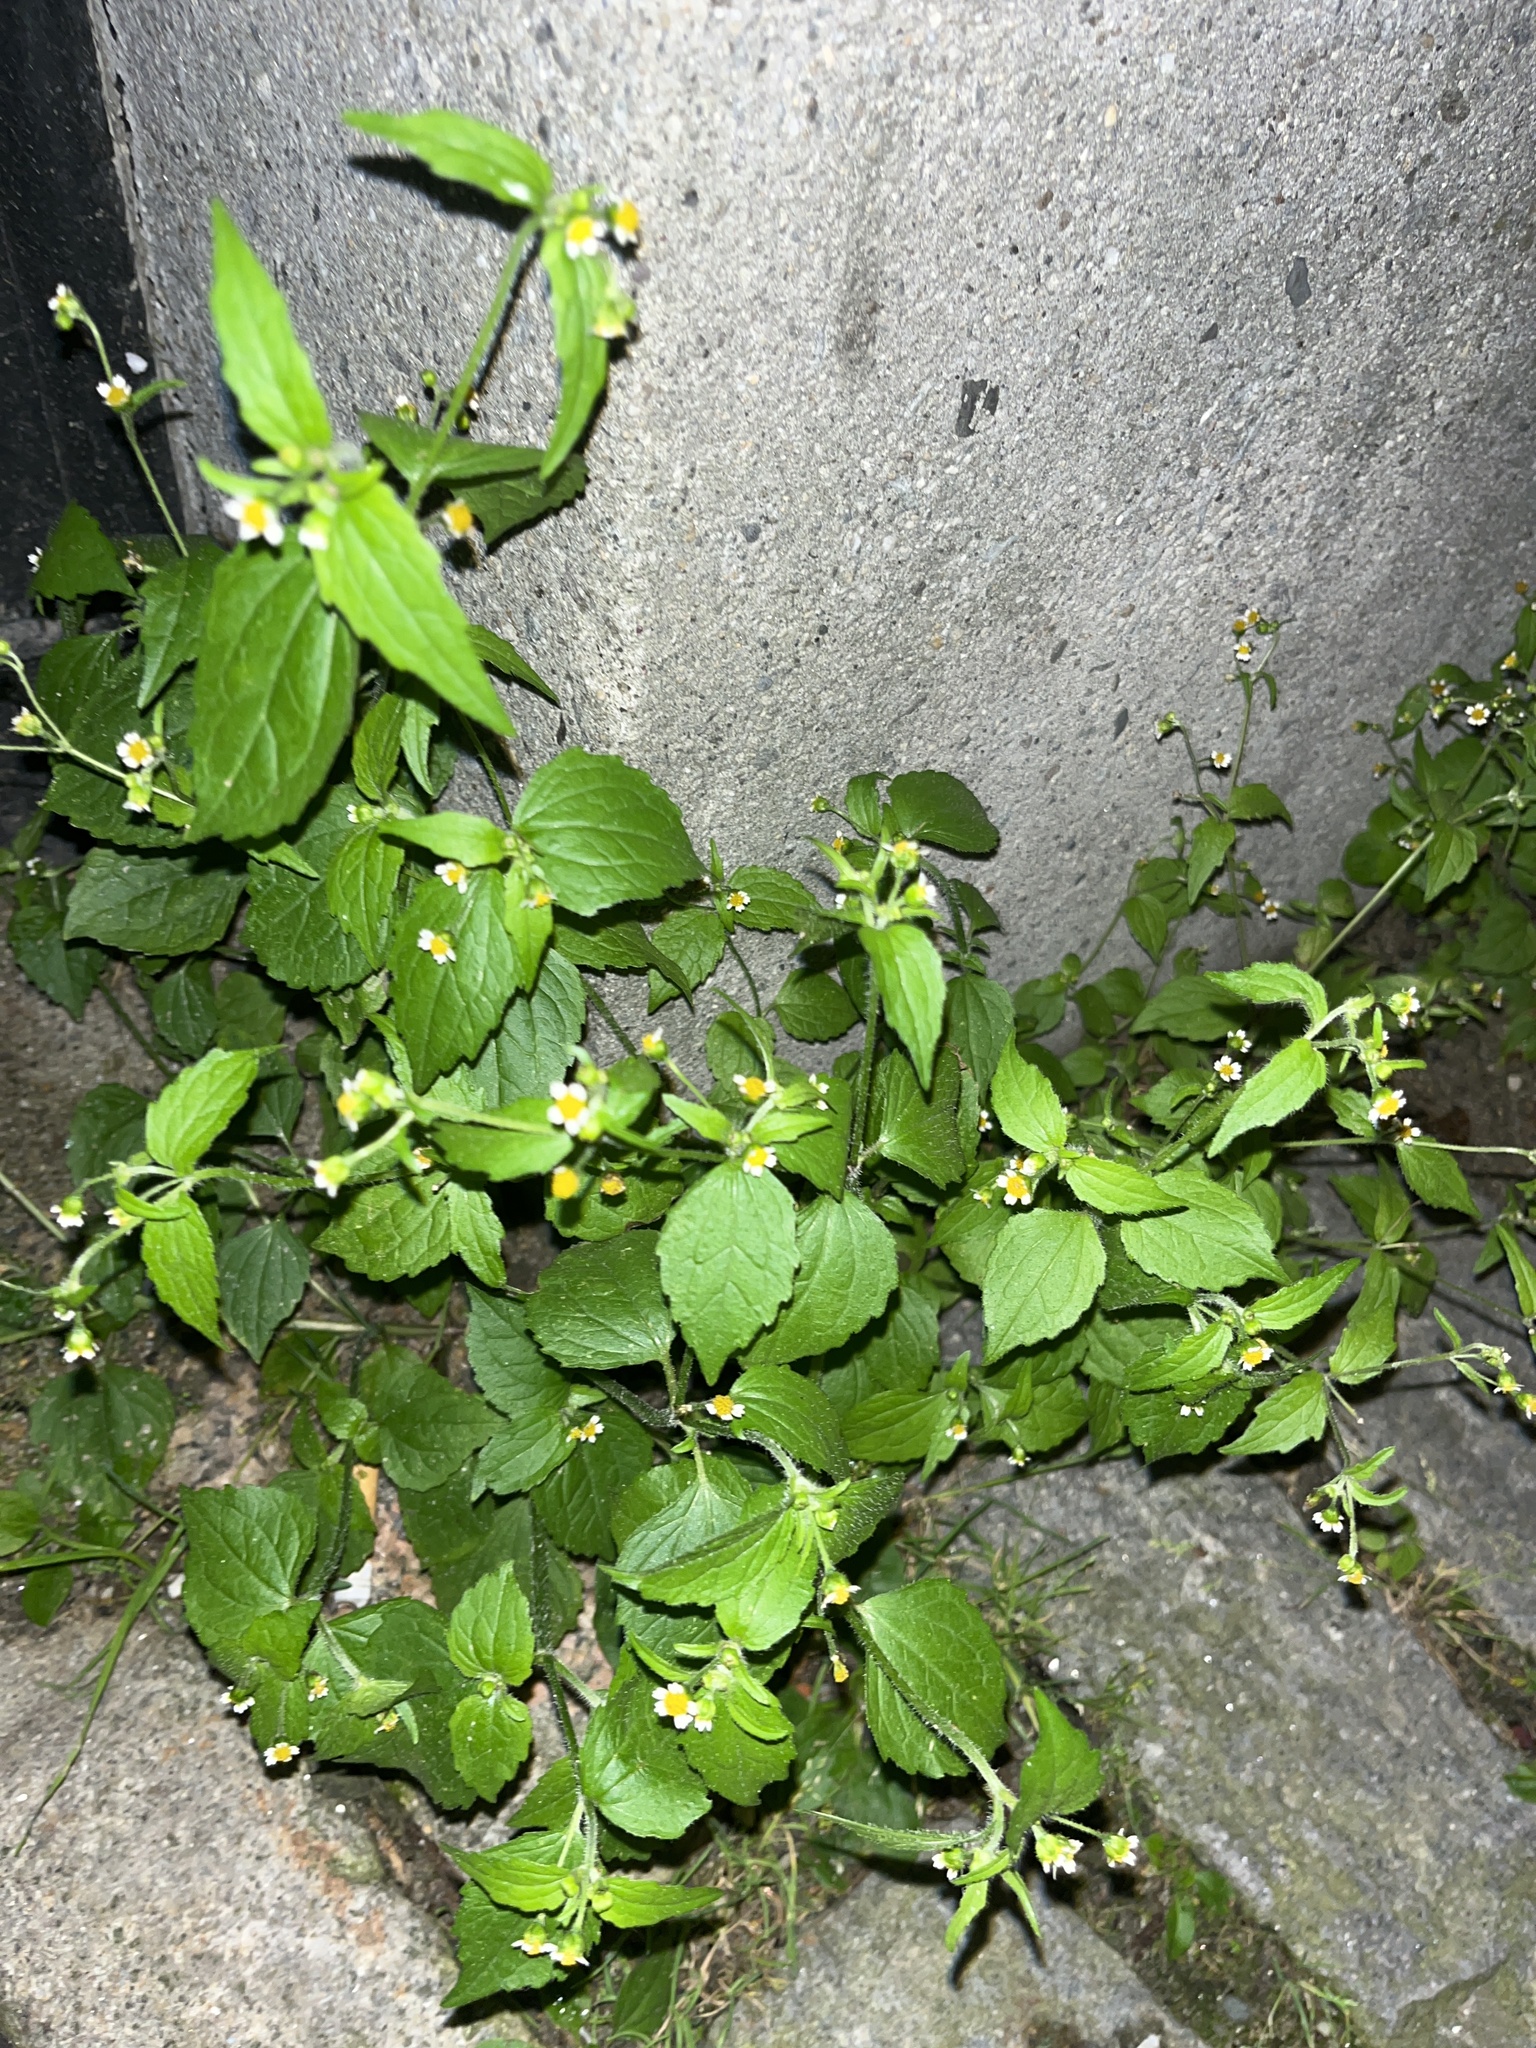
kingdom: Plantae
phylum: Tracheophyta
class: Magnoliopsida
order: Asterales
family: Asteraceae
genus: Galinsoga
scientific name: Galinsoga quadriradiata
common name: Shaggy soldier
